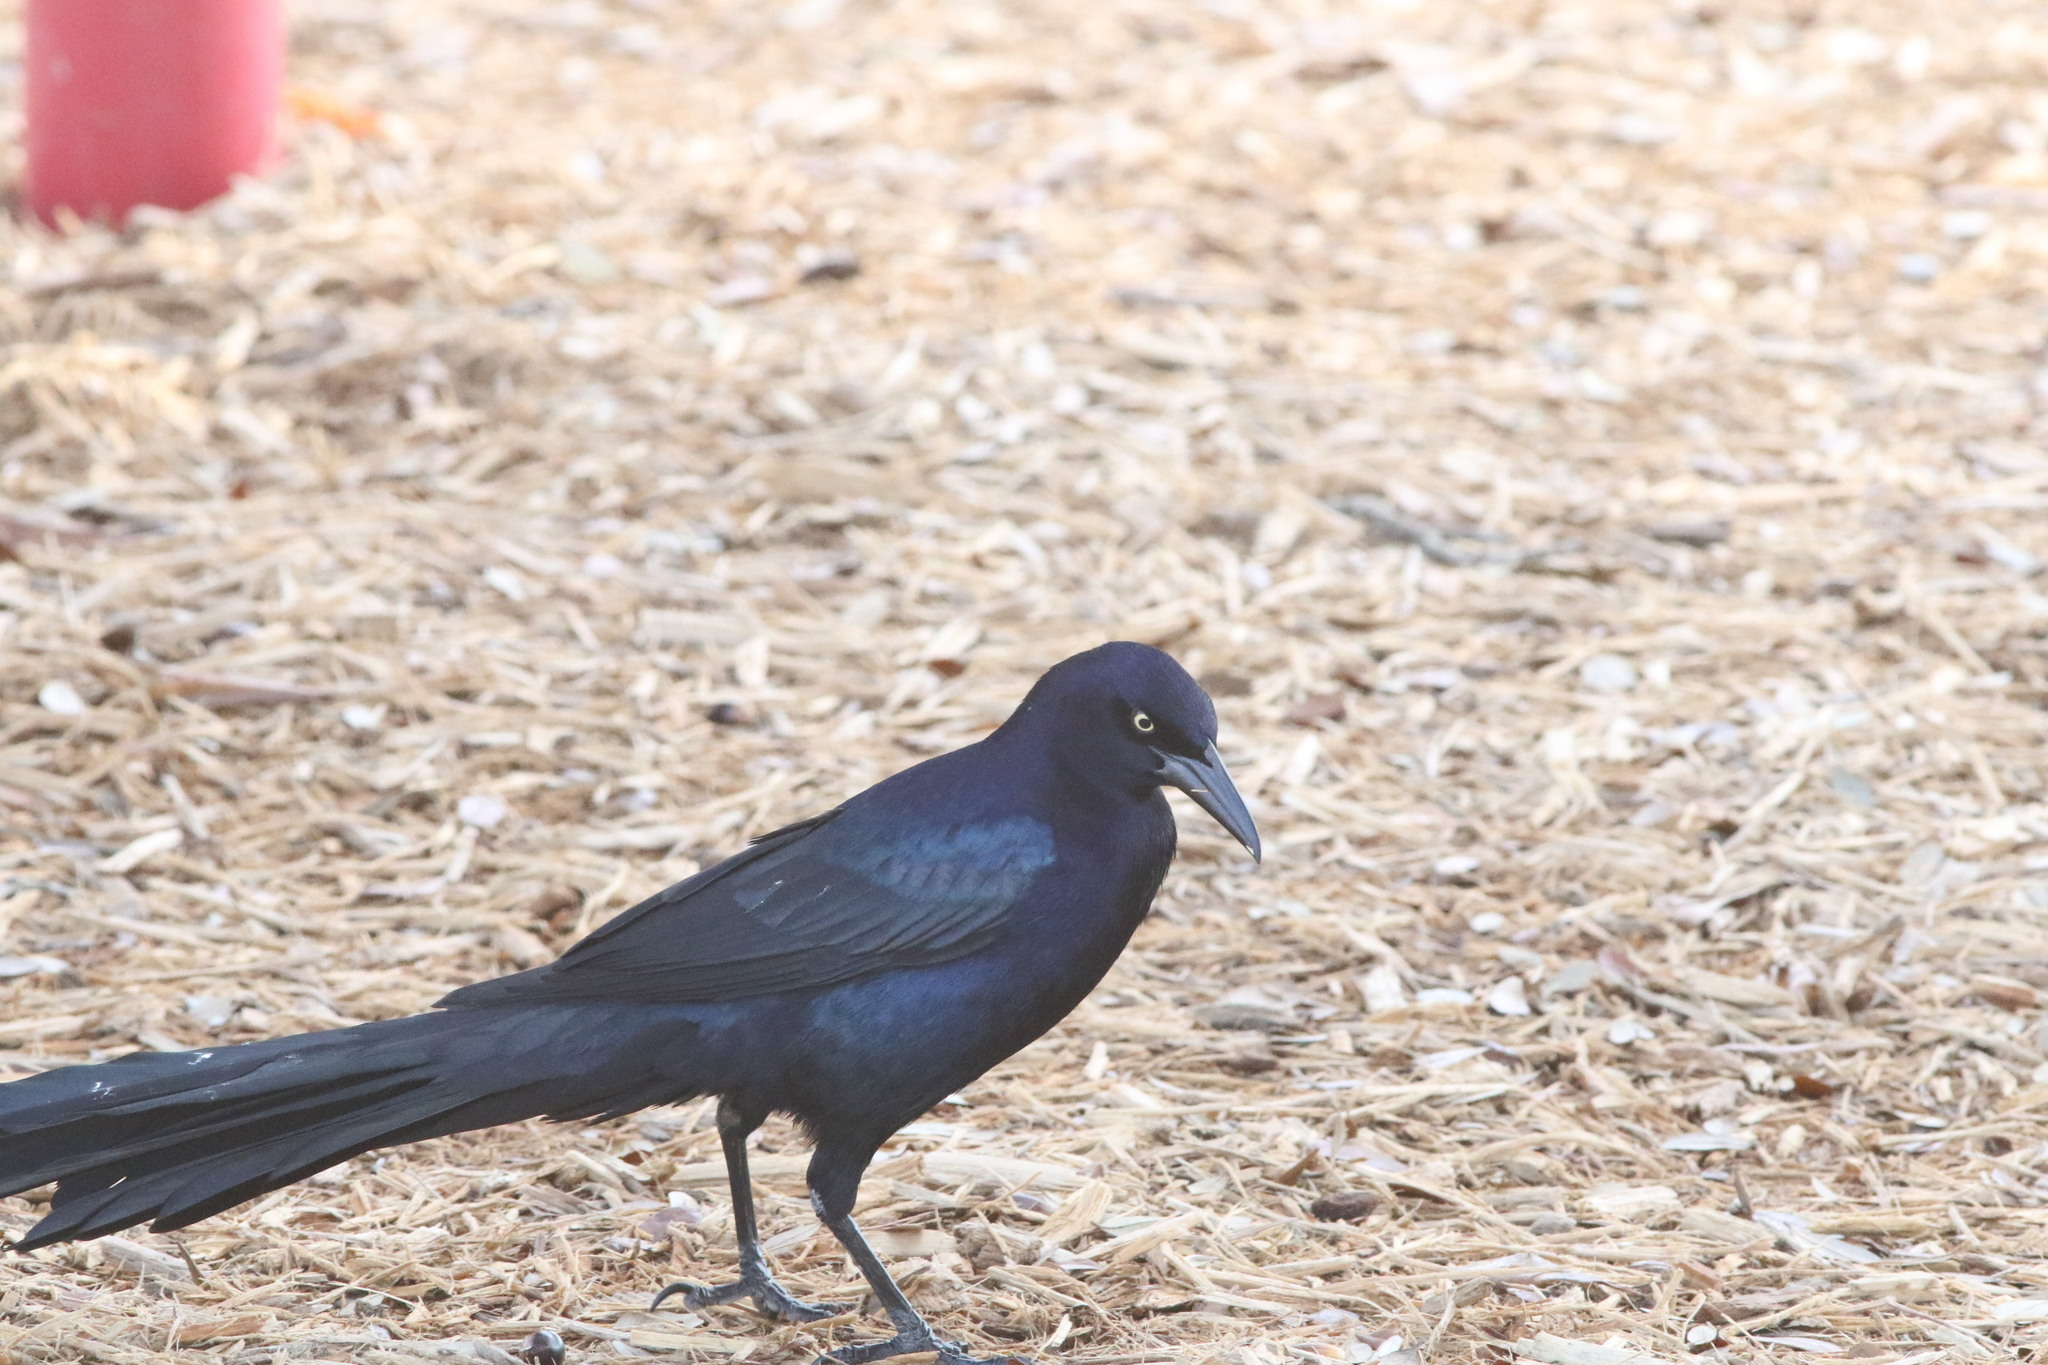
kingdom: Animalia
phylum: Chordata
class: Aves
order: Passeriformes
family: Icteridae
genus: Quiscalus
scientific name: Quiscalus mexicanus
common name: Great-tailed grackle
